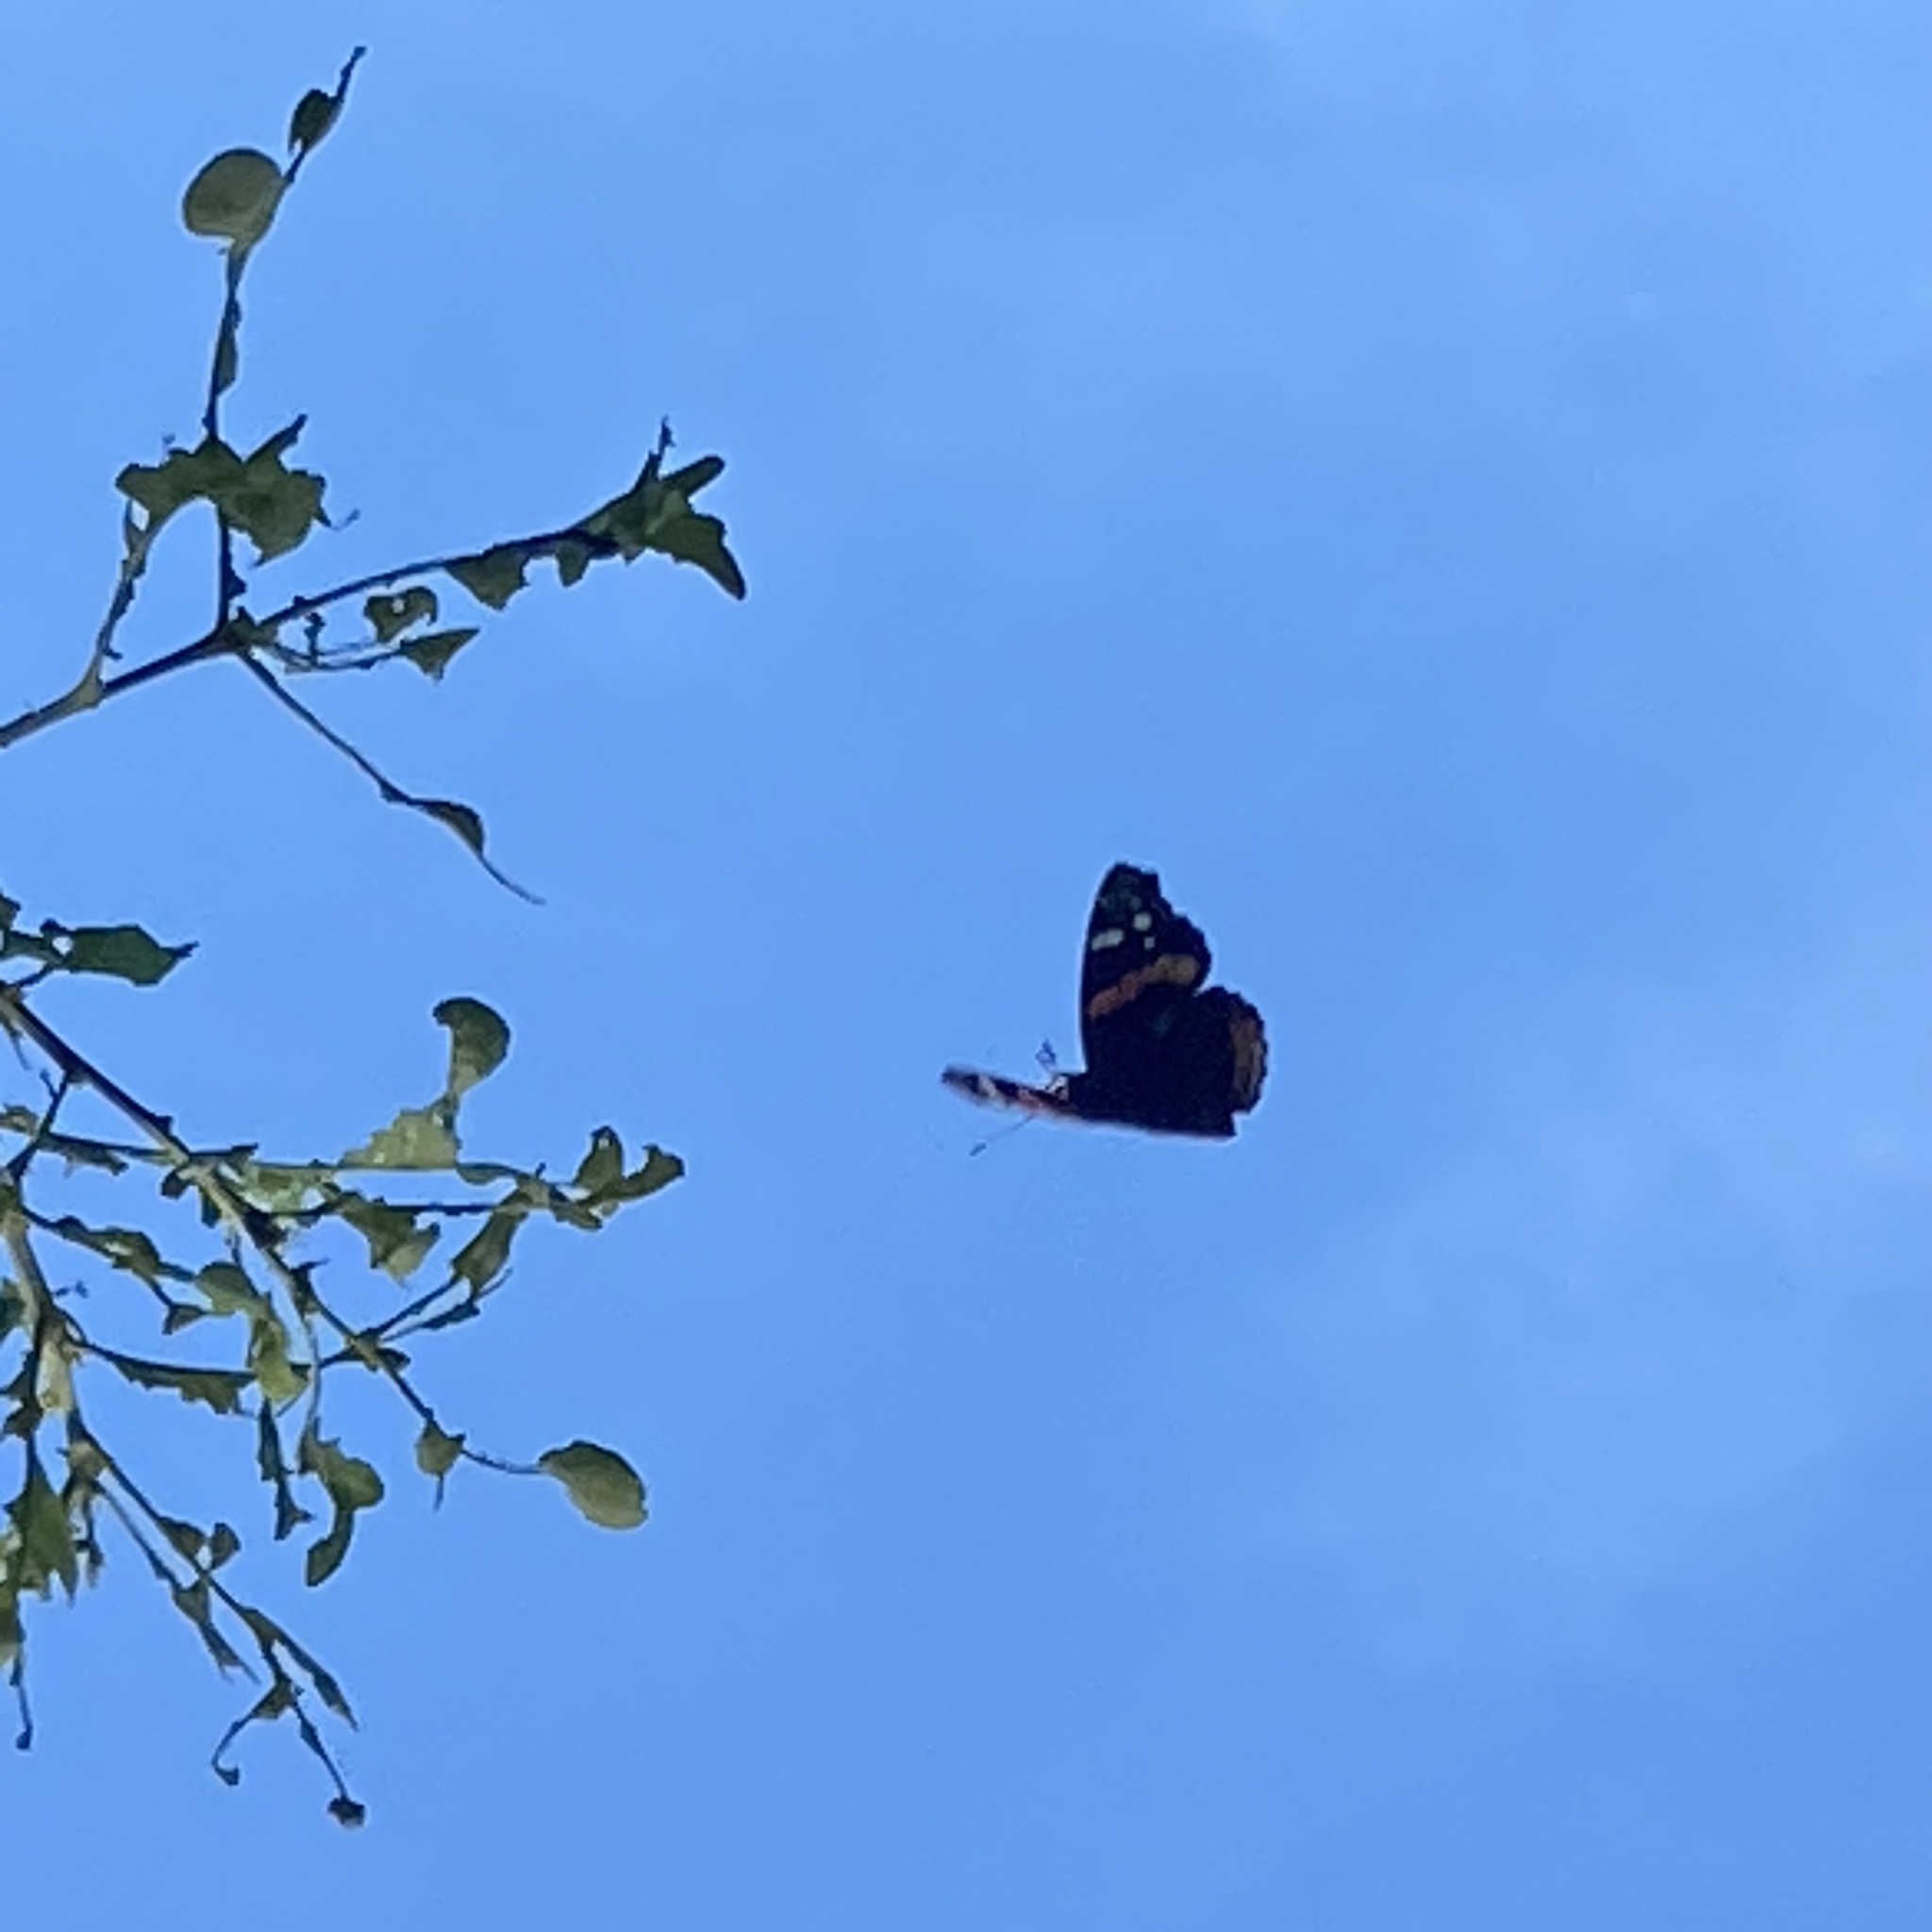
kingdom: Animalia
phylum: Arthropoda
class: Insecta
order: Lepidoptera
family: Nymphalidae
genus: Vanessa
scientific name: Vanessa atalanta
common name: Red admiral
